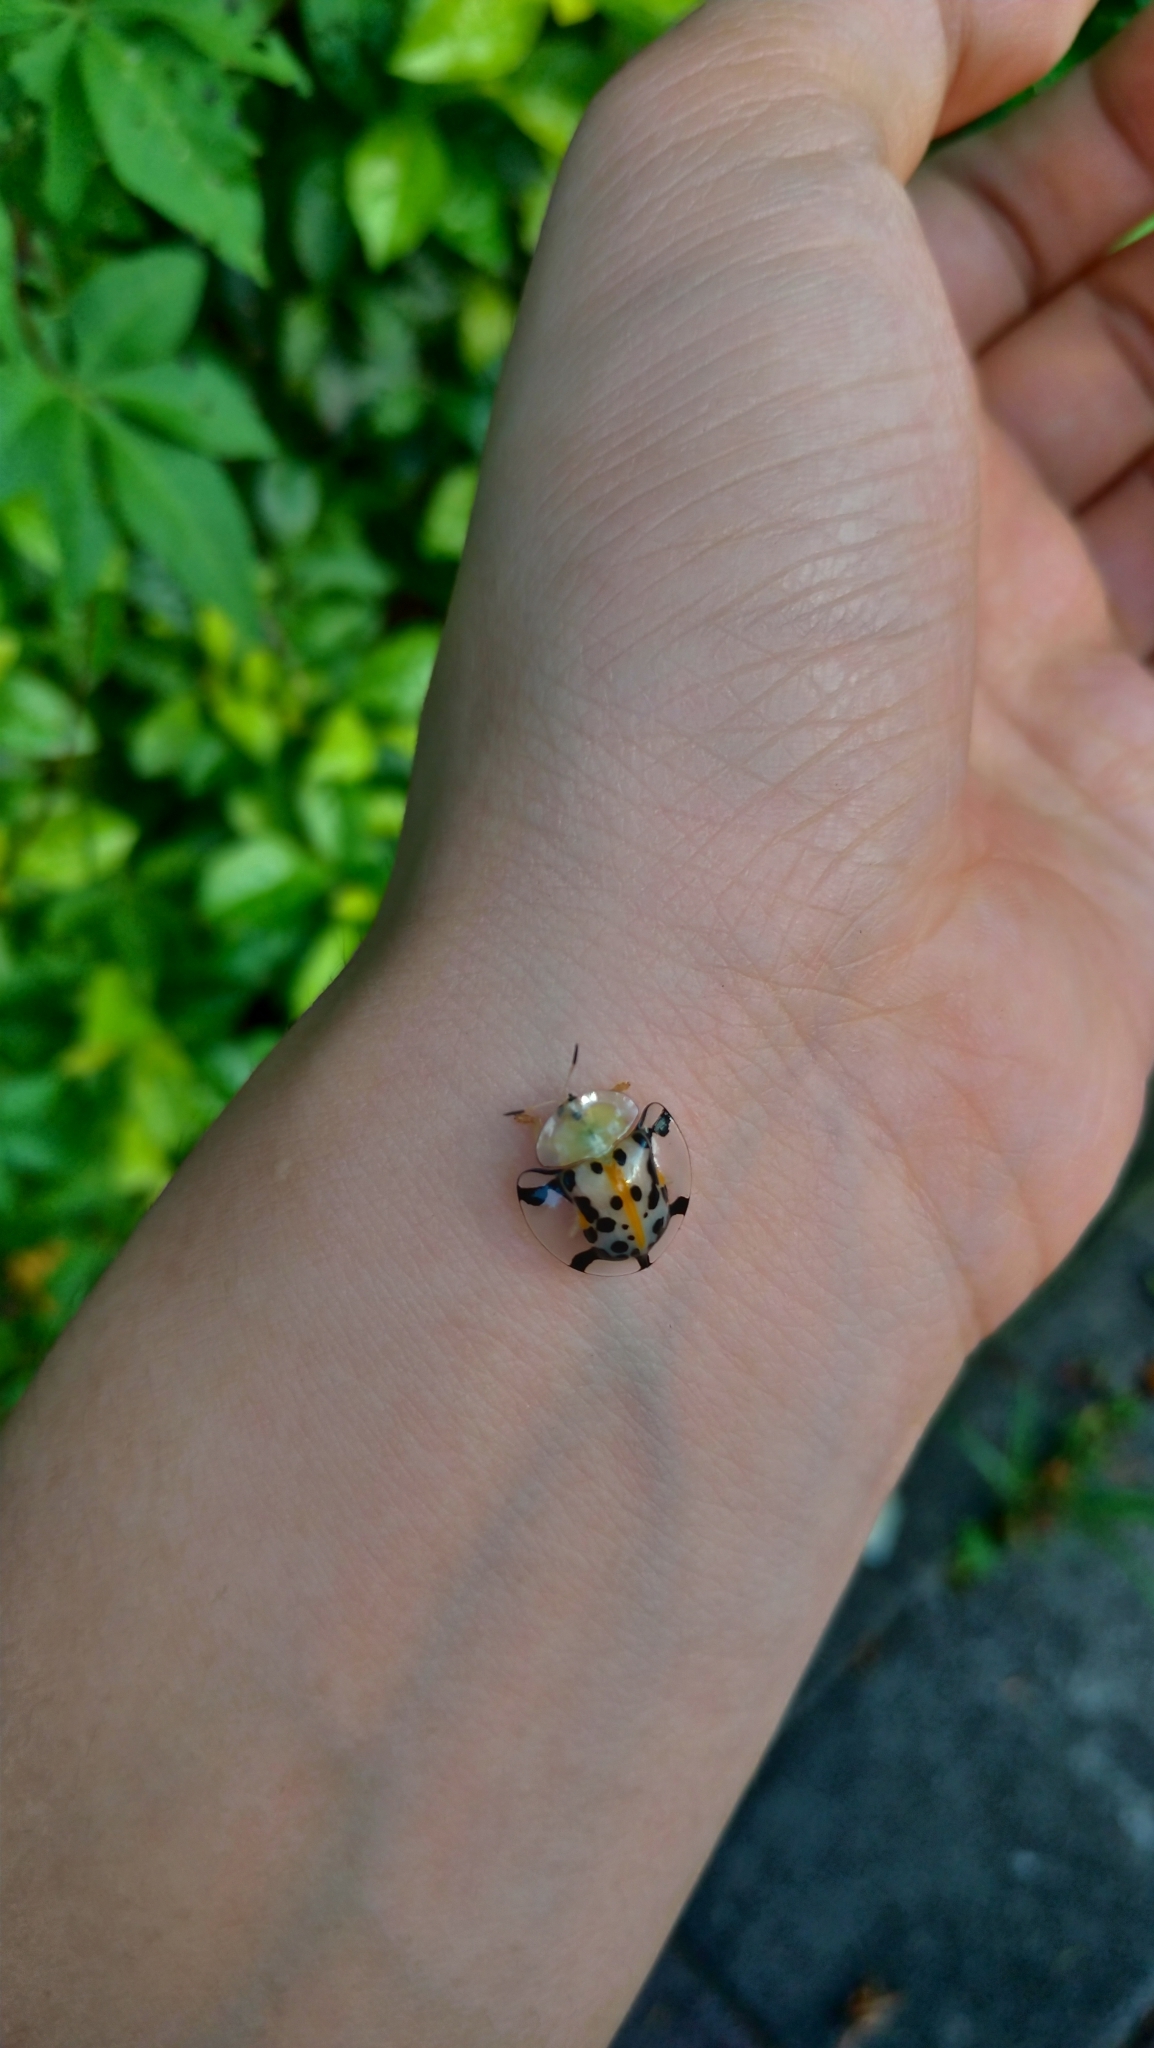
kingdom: Animalia
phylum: Arthropoda
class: Insecta
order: Coleoptera
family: Chrysomelidae
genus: Aspidimorpha
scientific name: Aspidimorpha miliaris
